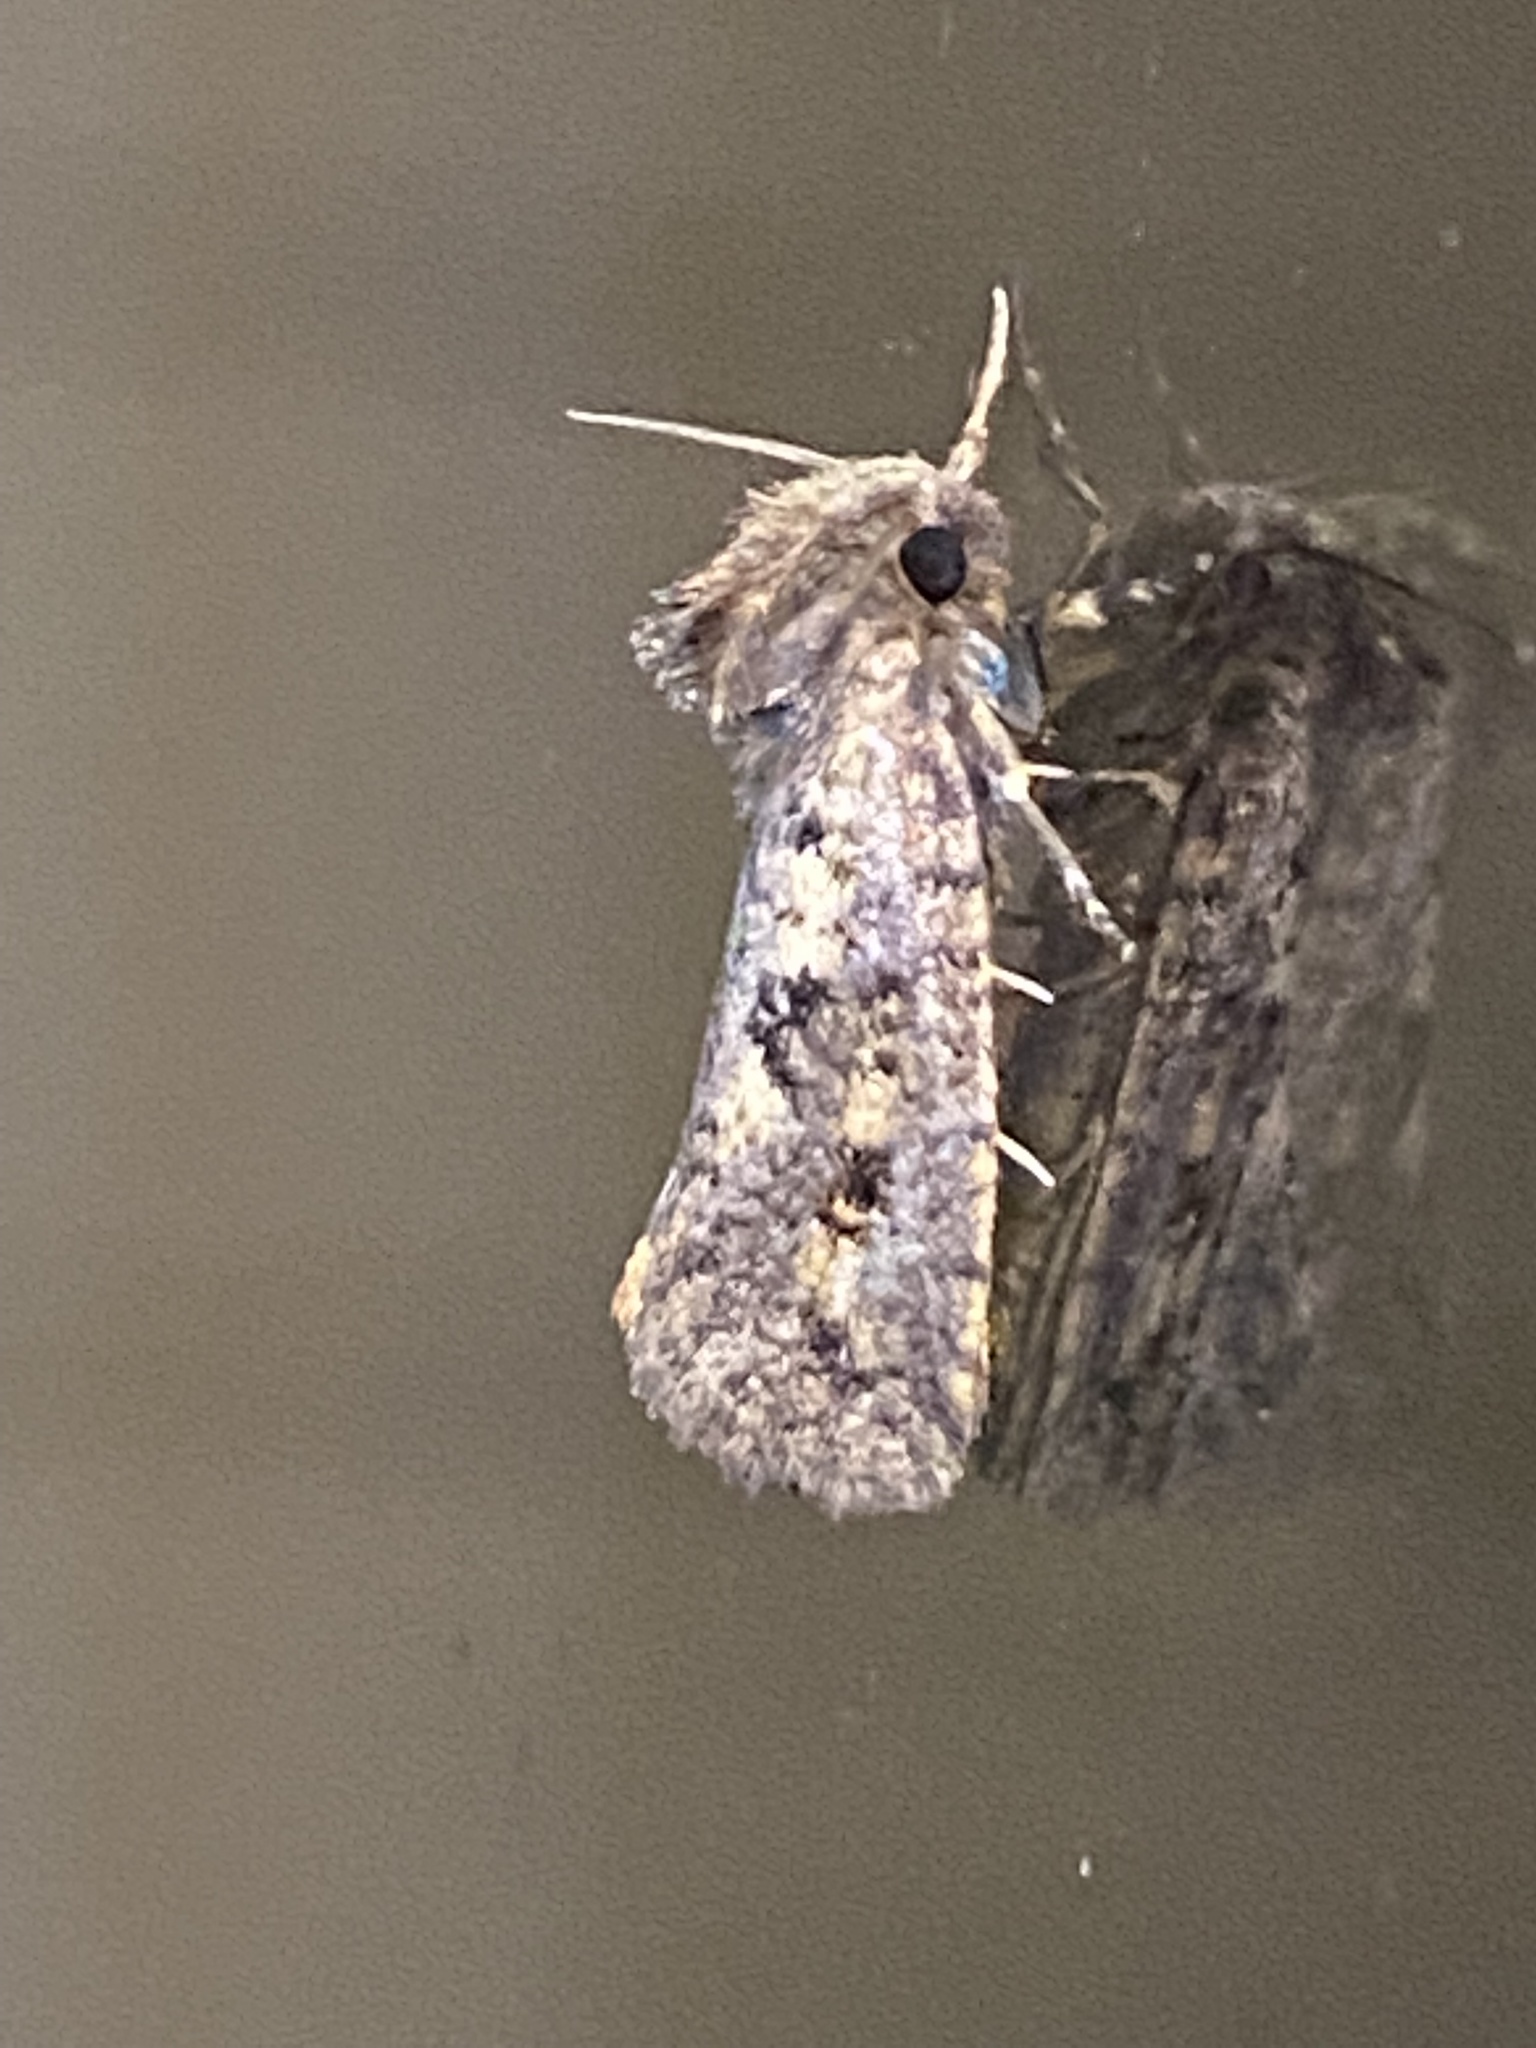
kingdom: Animalia
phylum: Arthropoda
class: Insecta
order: Lepidoptera
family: Tineidae
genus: Acrolophus
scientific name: Acrolophus popeanella
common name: Clemens' grass tubeworm moth
